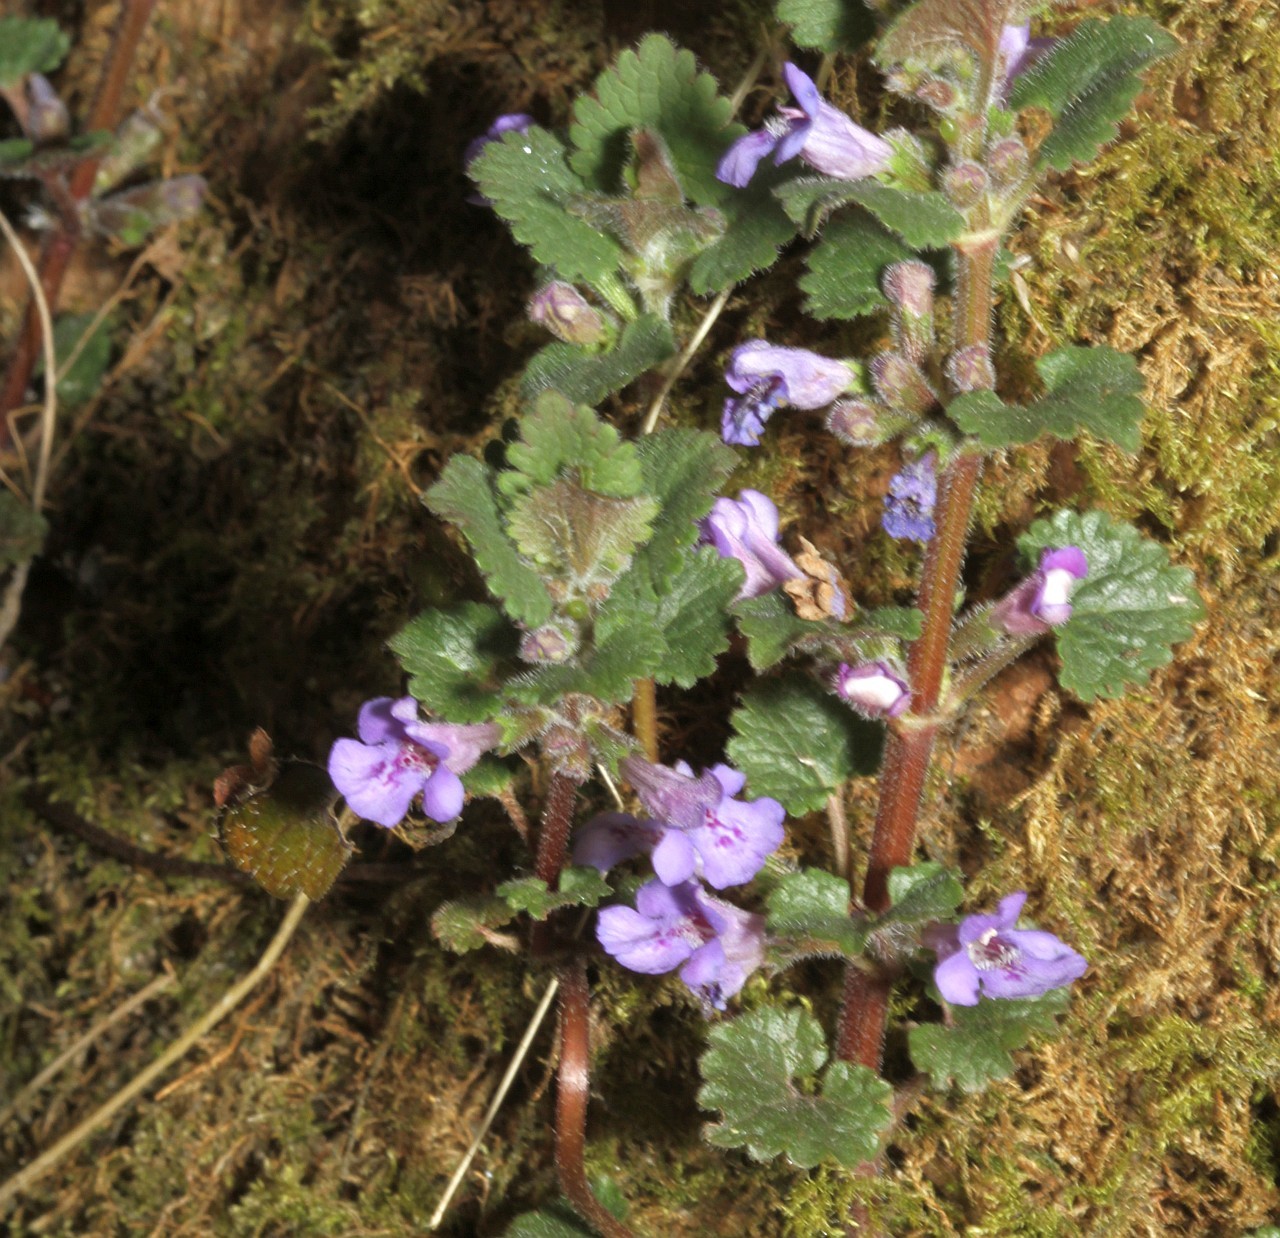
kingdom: Plantae
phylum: Tracheophyta
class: Magnoliopsida
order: Lamiales
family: Lamiaceae
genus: Glechoma
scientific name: Glechoma hederacea
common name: Ground ivy
